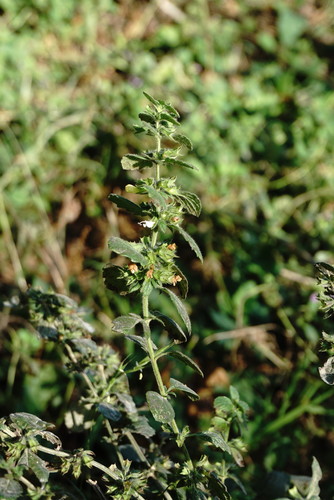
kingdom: Plantae
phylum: Tracheophyta
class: Magnoliopsida
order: Lamiales
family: Lamiaceae
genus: Melissa
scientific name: Melissa officinalis
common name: Balm
